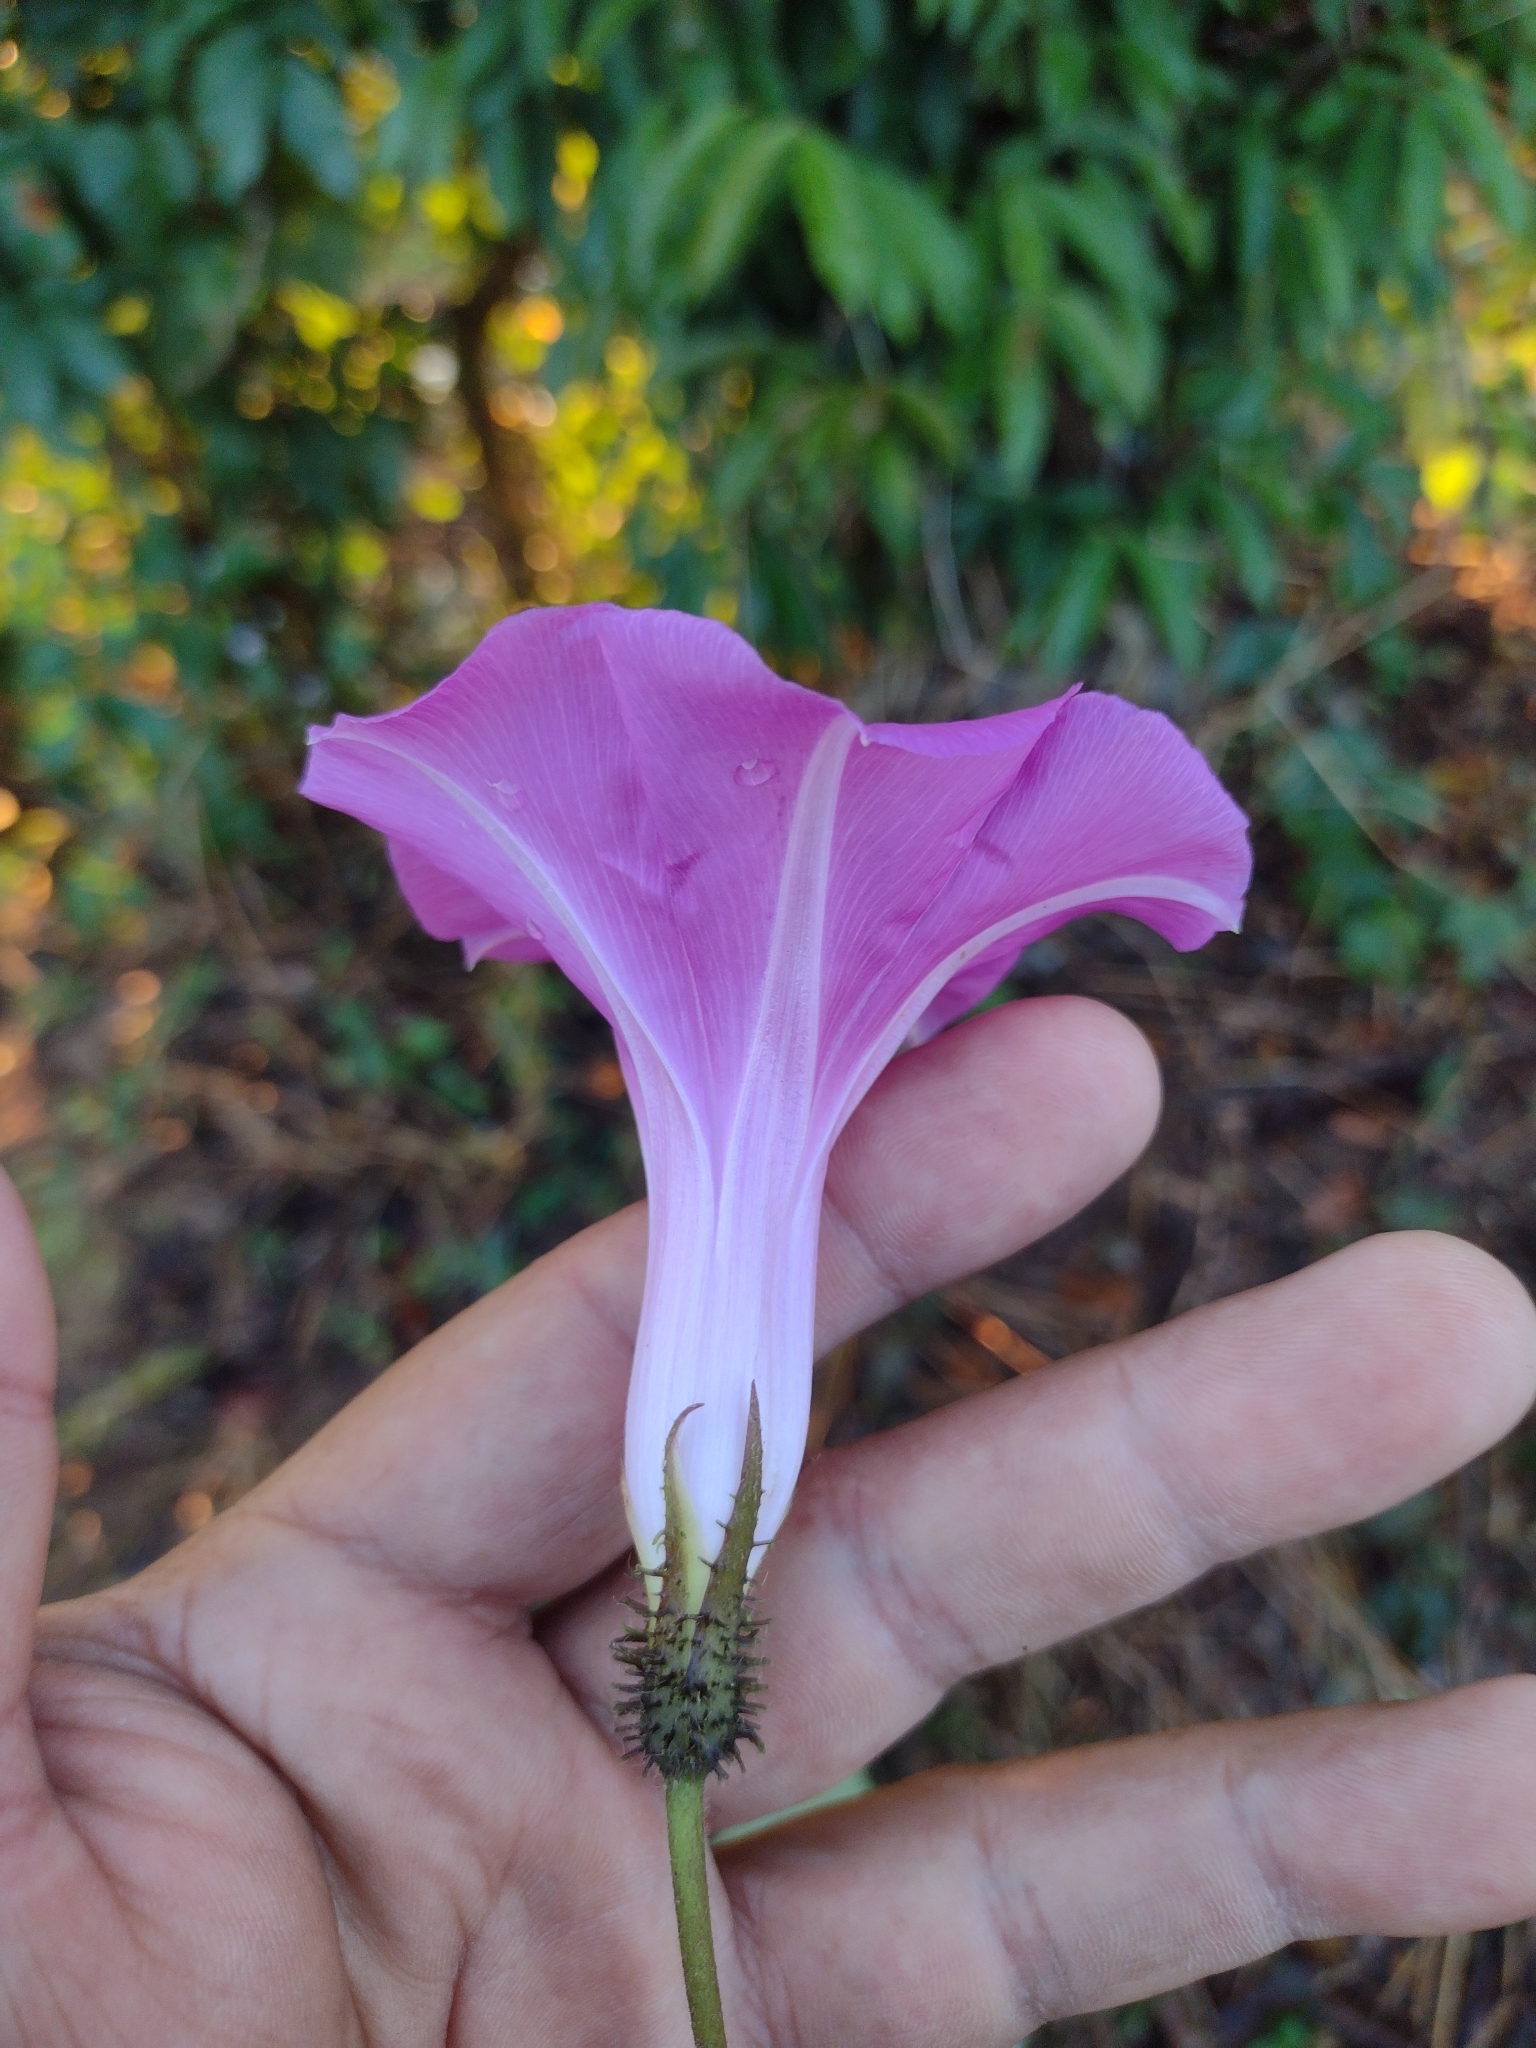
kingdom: Plantae
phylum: Tracheophyta
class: Magnoliopsida
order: Solanales
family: Convolvulaceae
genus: Ipomoea
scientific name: Ipomoea silvicola
